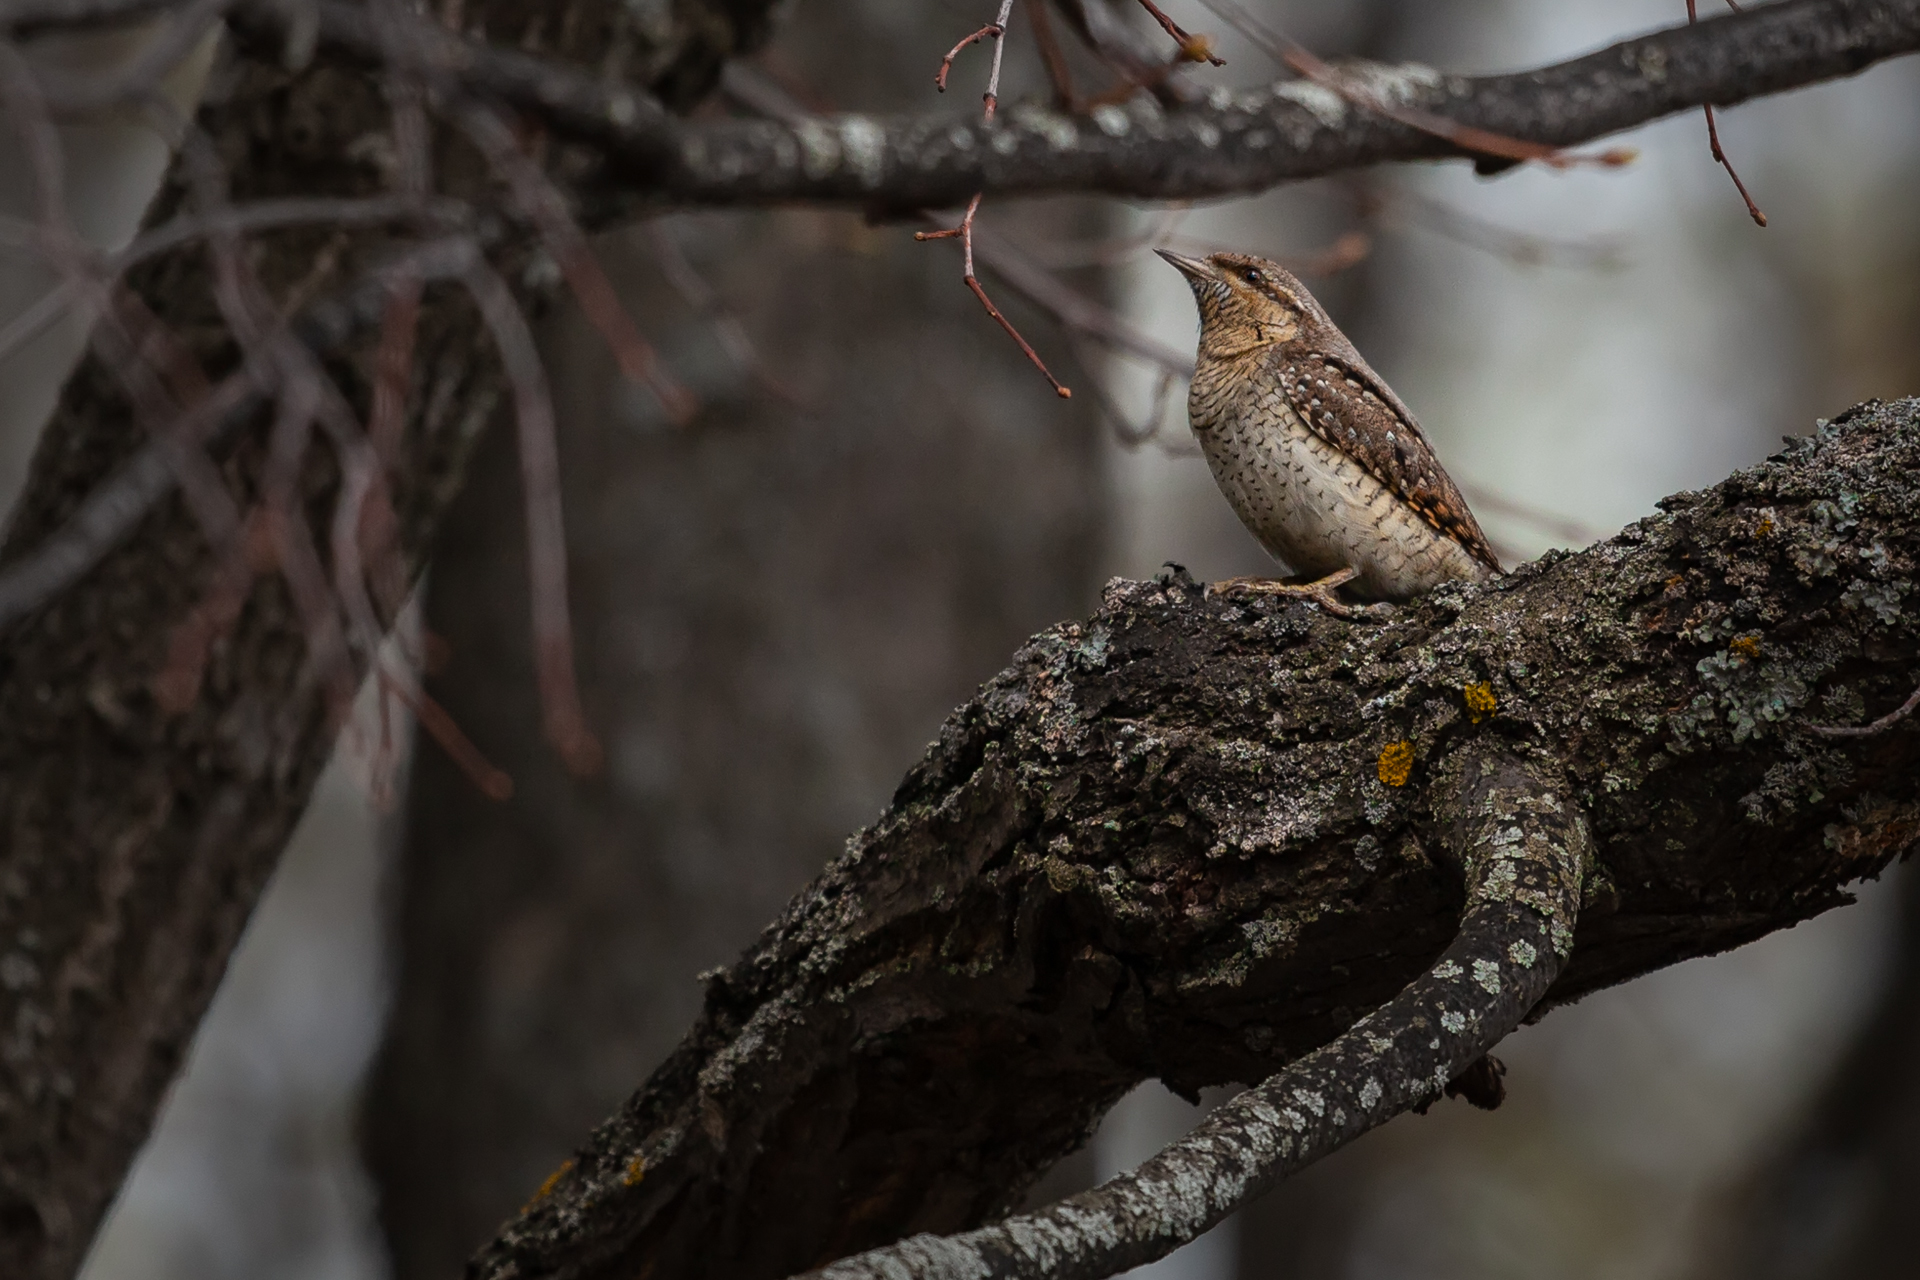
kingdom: Animalia
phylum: Chordata
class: Aves
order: Piciformes
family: Picidae
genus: Jynx
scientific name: Jynx torquilla
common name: Eurasian wryneck
